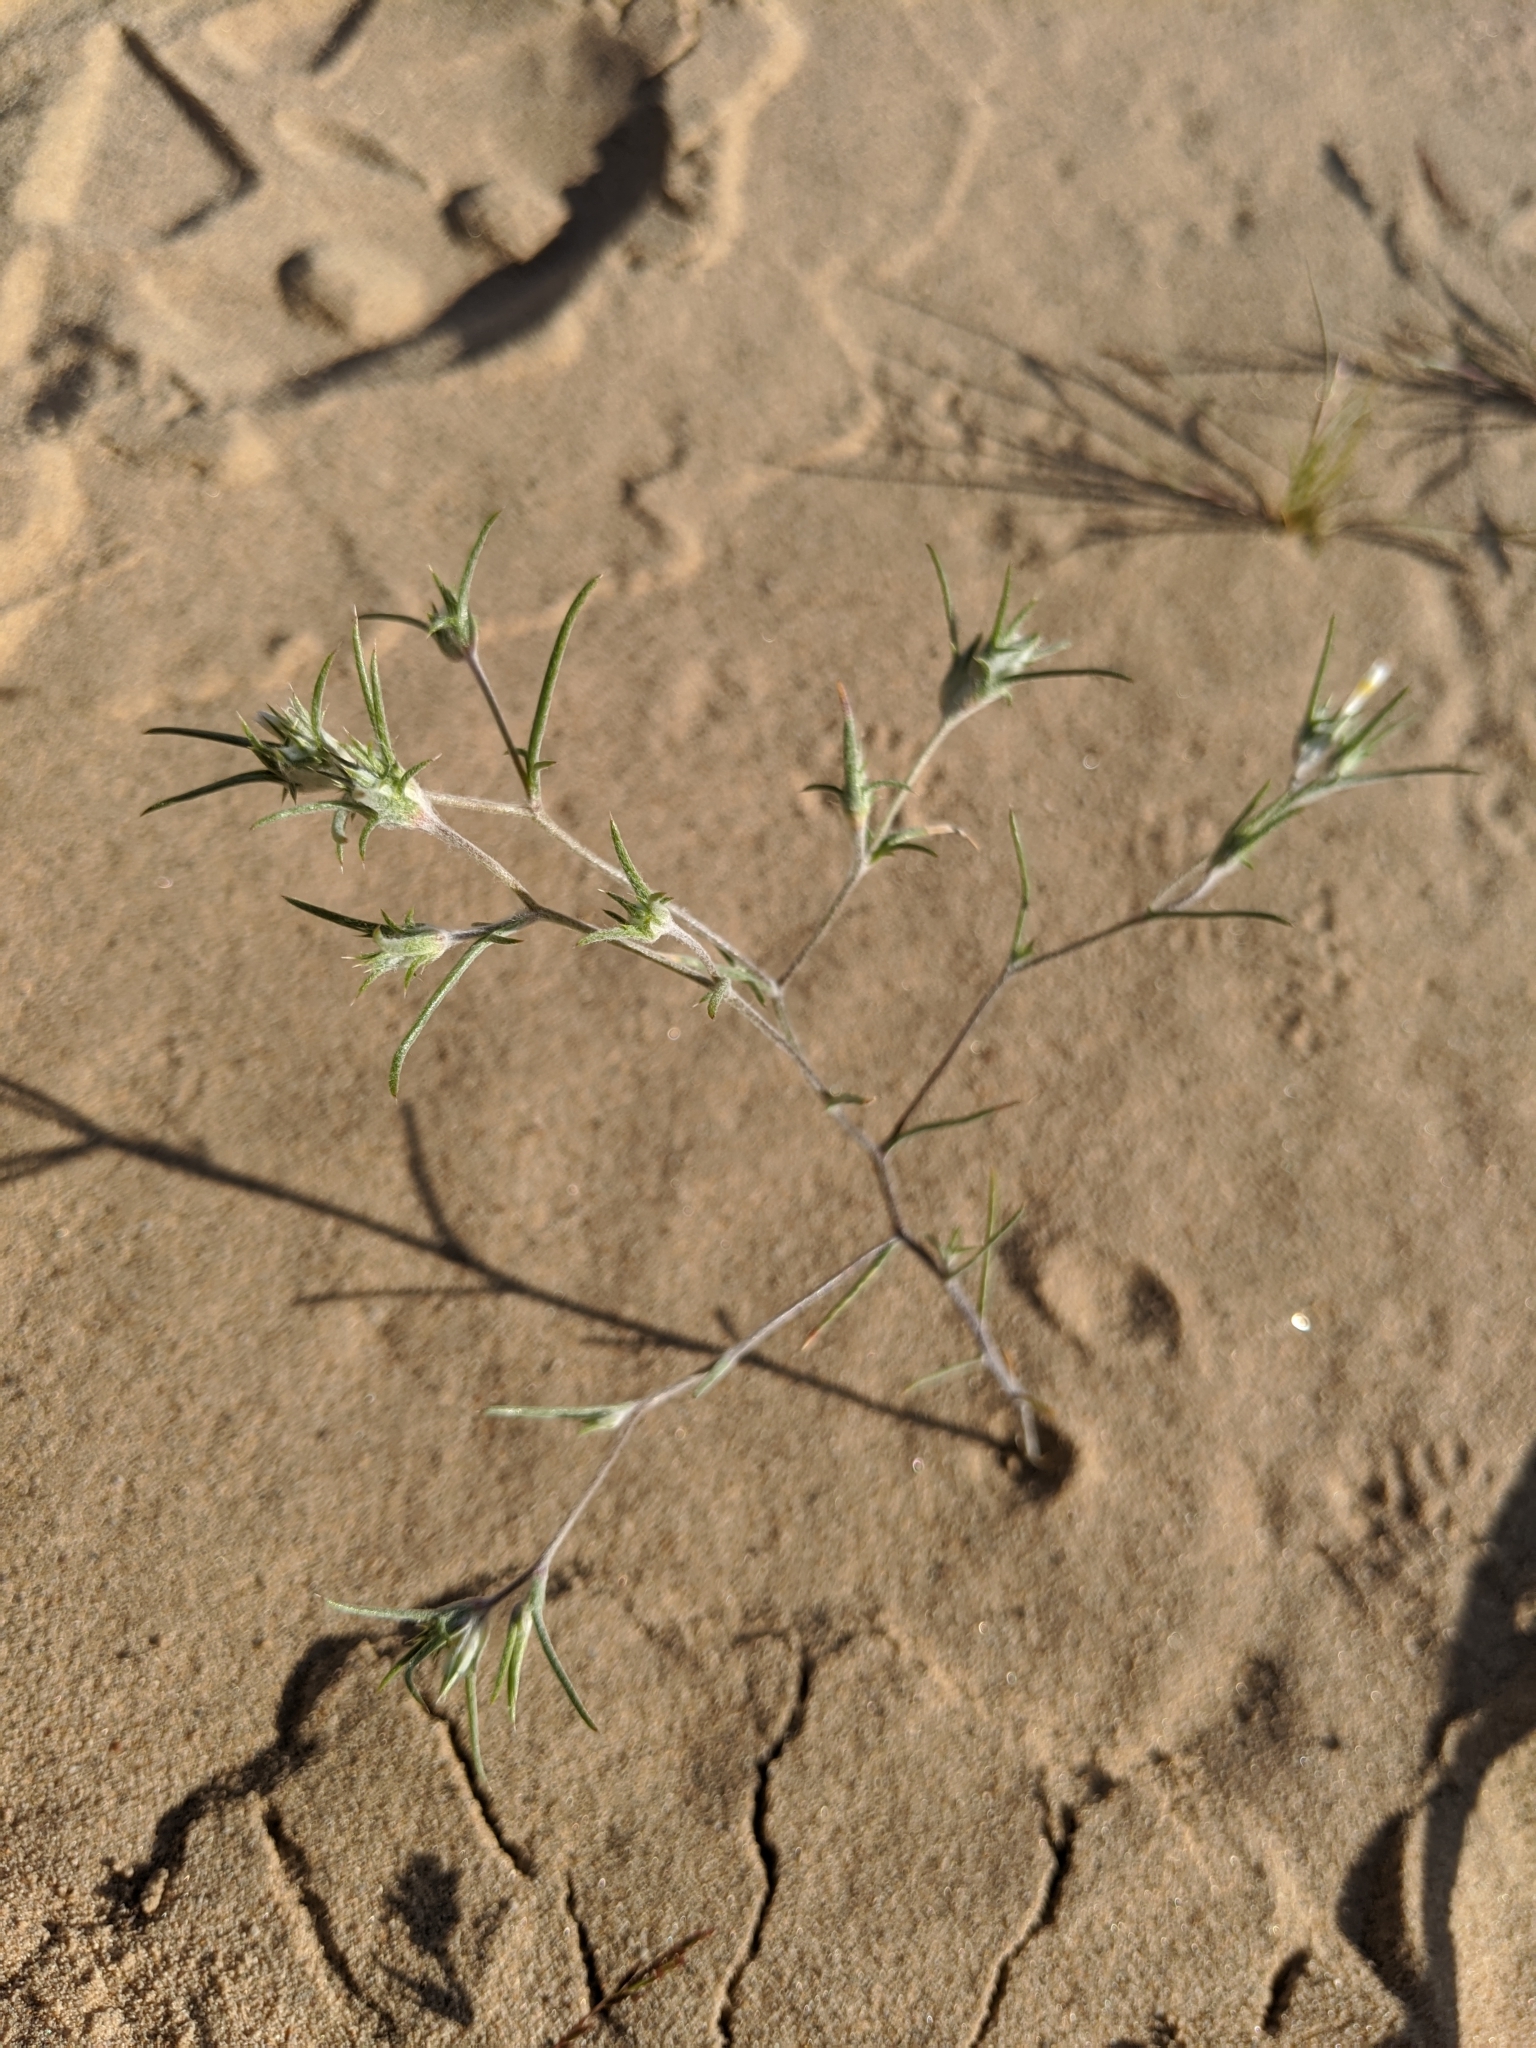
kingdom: Plantae
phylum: Tracheophyta
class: Magnoliopsida
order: Ericales
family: Polemoniaceae
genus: Eriastrum
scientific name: Eriastrum harwoodii
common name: Harwood's woollystar
